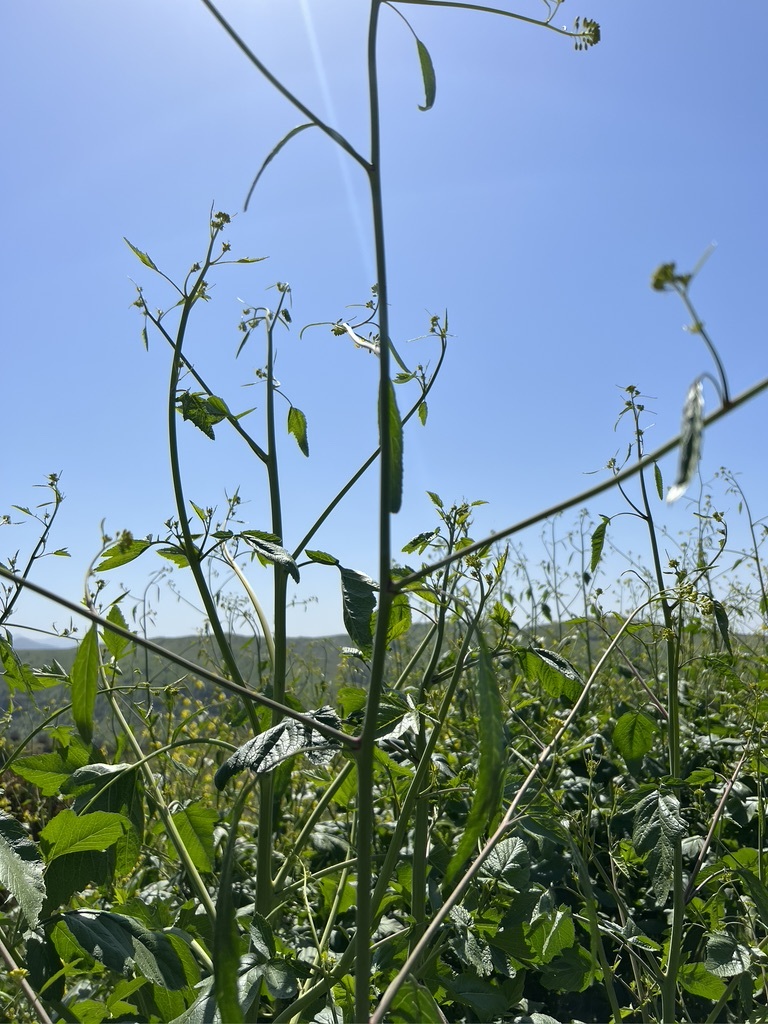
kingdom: Plantae
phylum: Tracheophyta
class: Magnoliopsida
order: Brassicales
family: Brassicaceae
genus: Brassica
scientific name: Brassica nigra
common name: Black mustard
